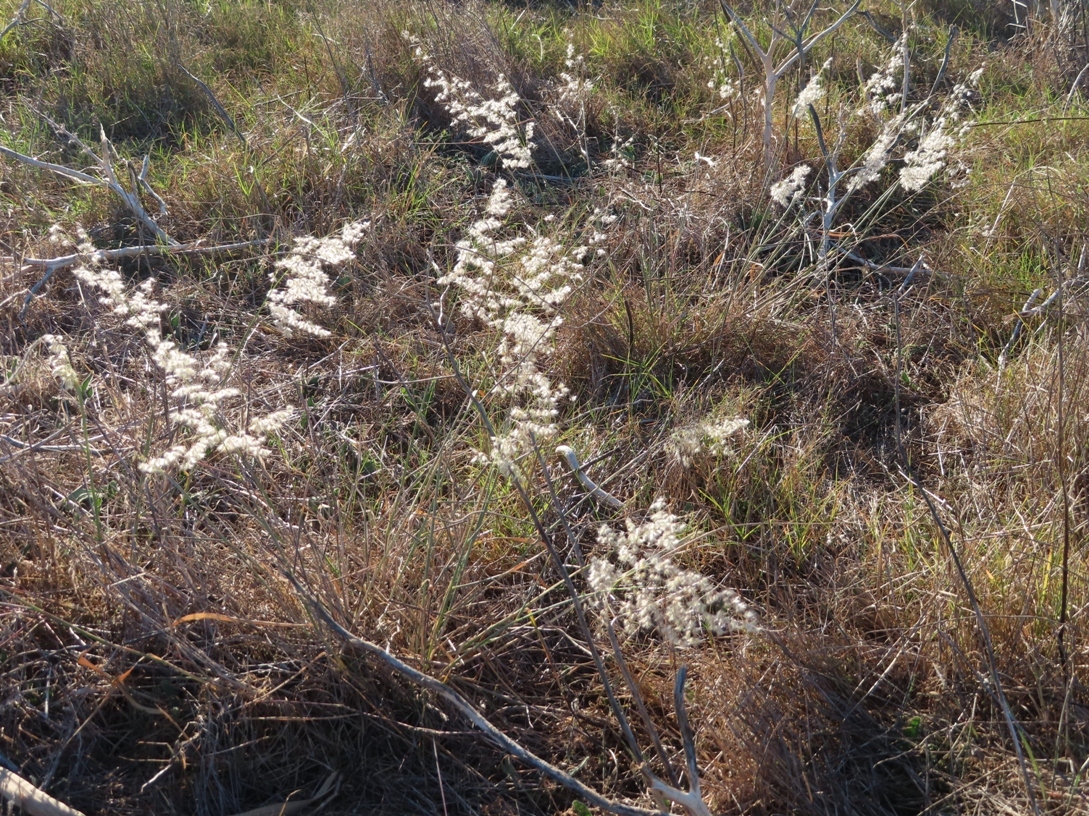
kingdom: Plantae
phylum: Tracheophyta
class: Liliopsida
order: Poales
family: Poaceae
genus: Melinis
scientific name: Melinis repens
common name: Rose natal grass
